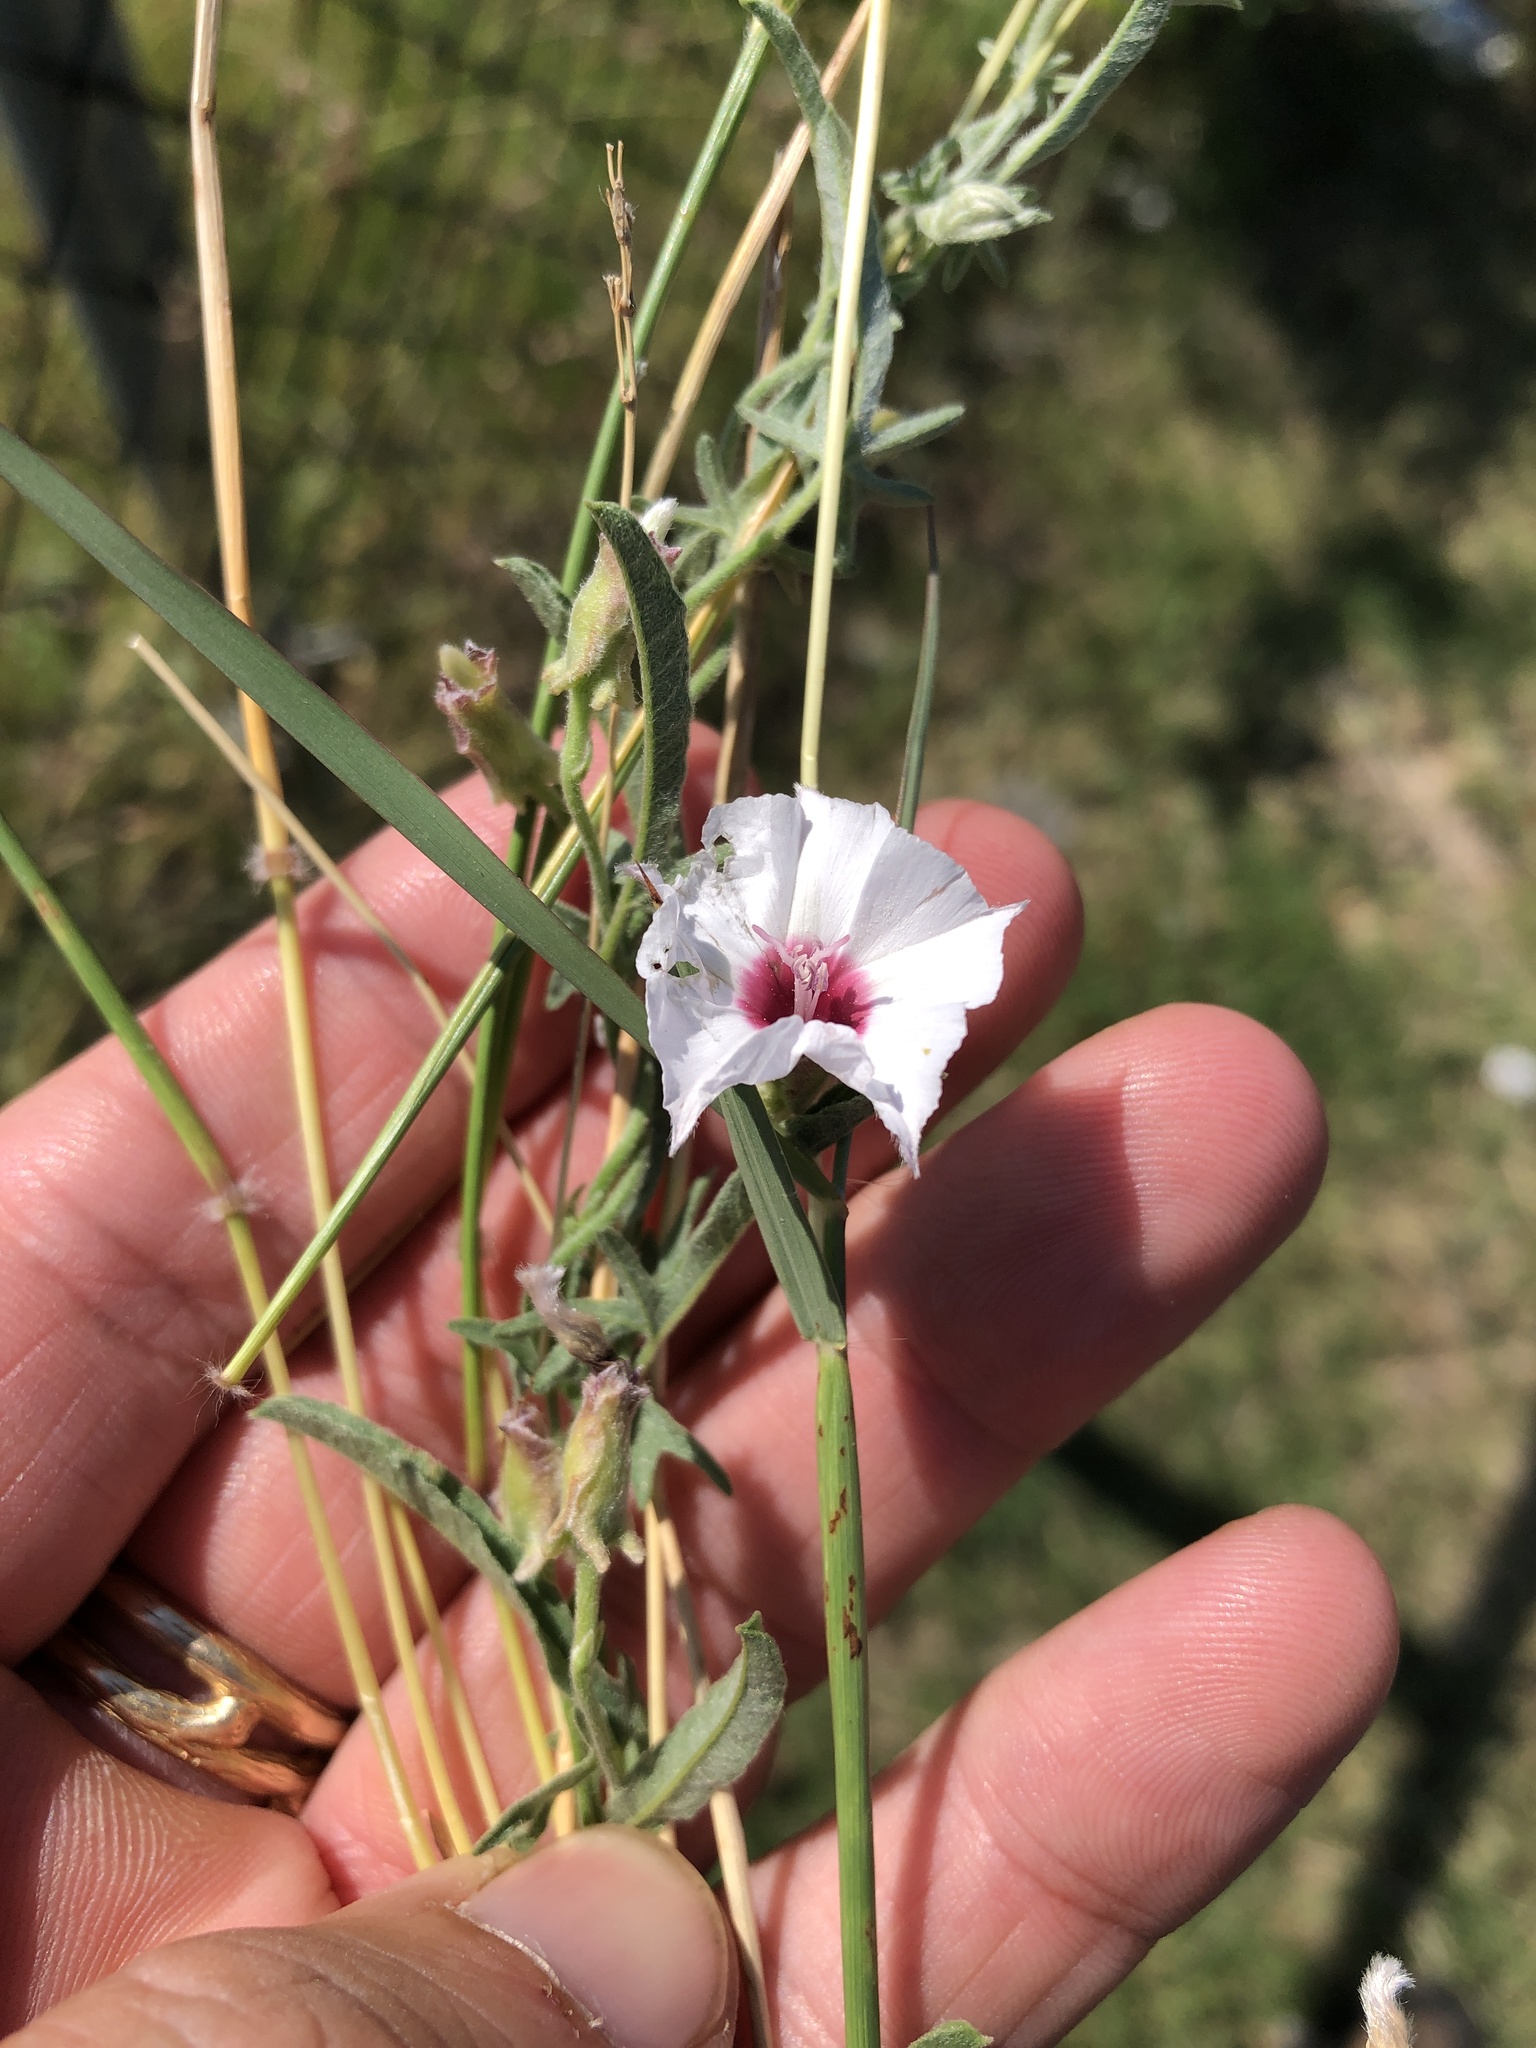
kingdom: Plantae
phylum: Tracheophyta
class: Magnoliopsida
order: Solanales
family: Convolvulaceae
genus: Convolvulus
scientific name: Convolvulus equitans
